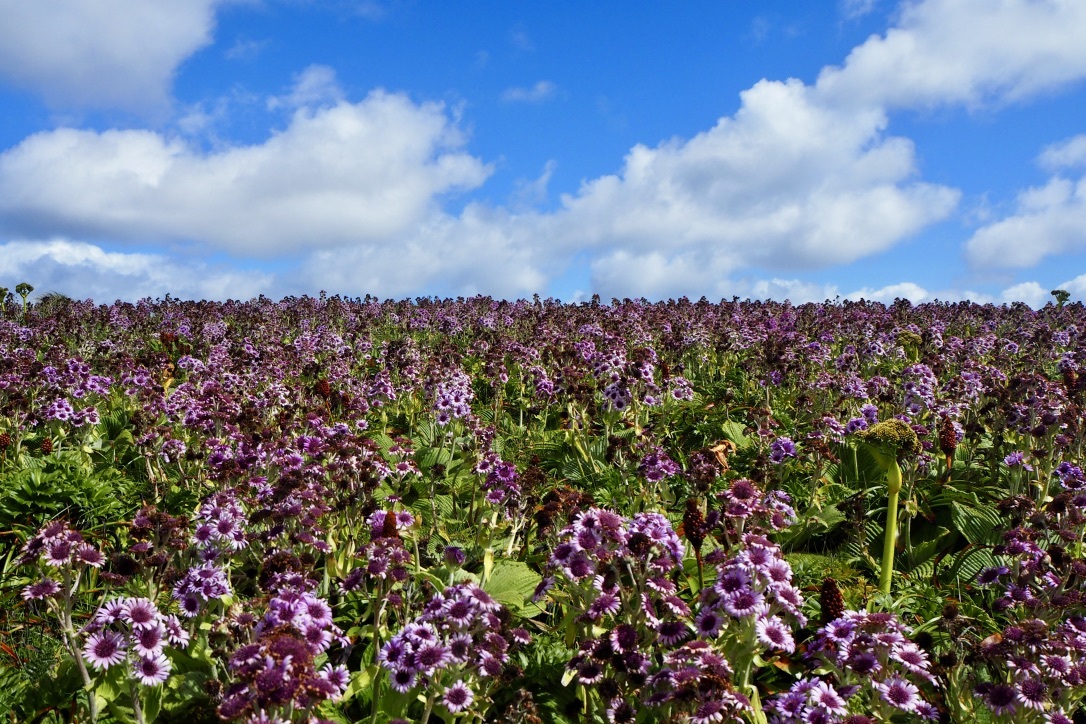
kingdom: Plantae
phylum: Tracheophyta
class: Magnoliopsida
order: Asterales
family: Asteraceae
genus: Pleurophyllum
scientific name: Pleurophyllum speciosum
